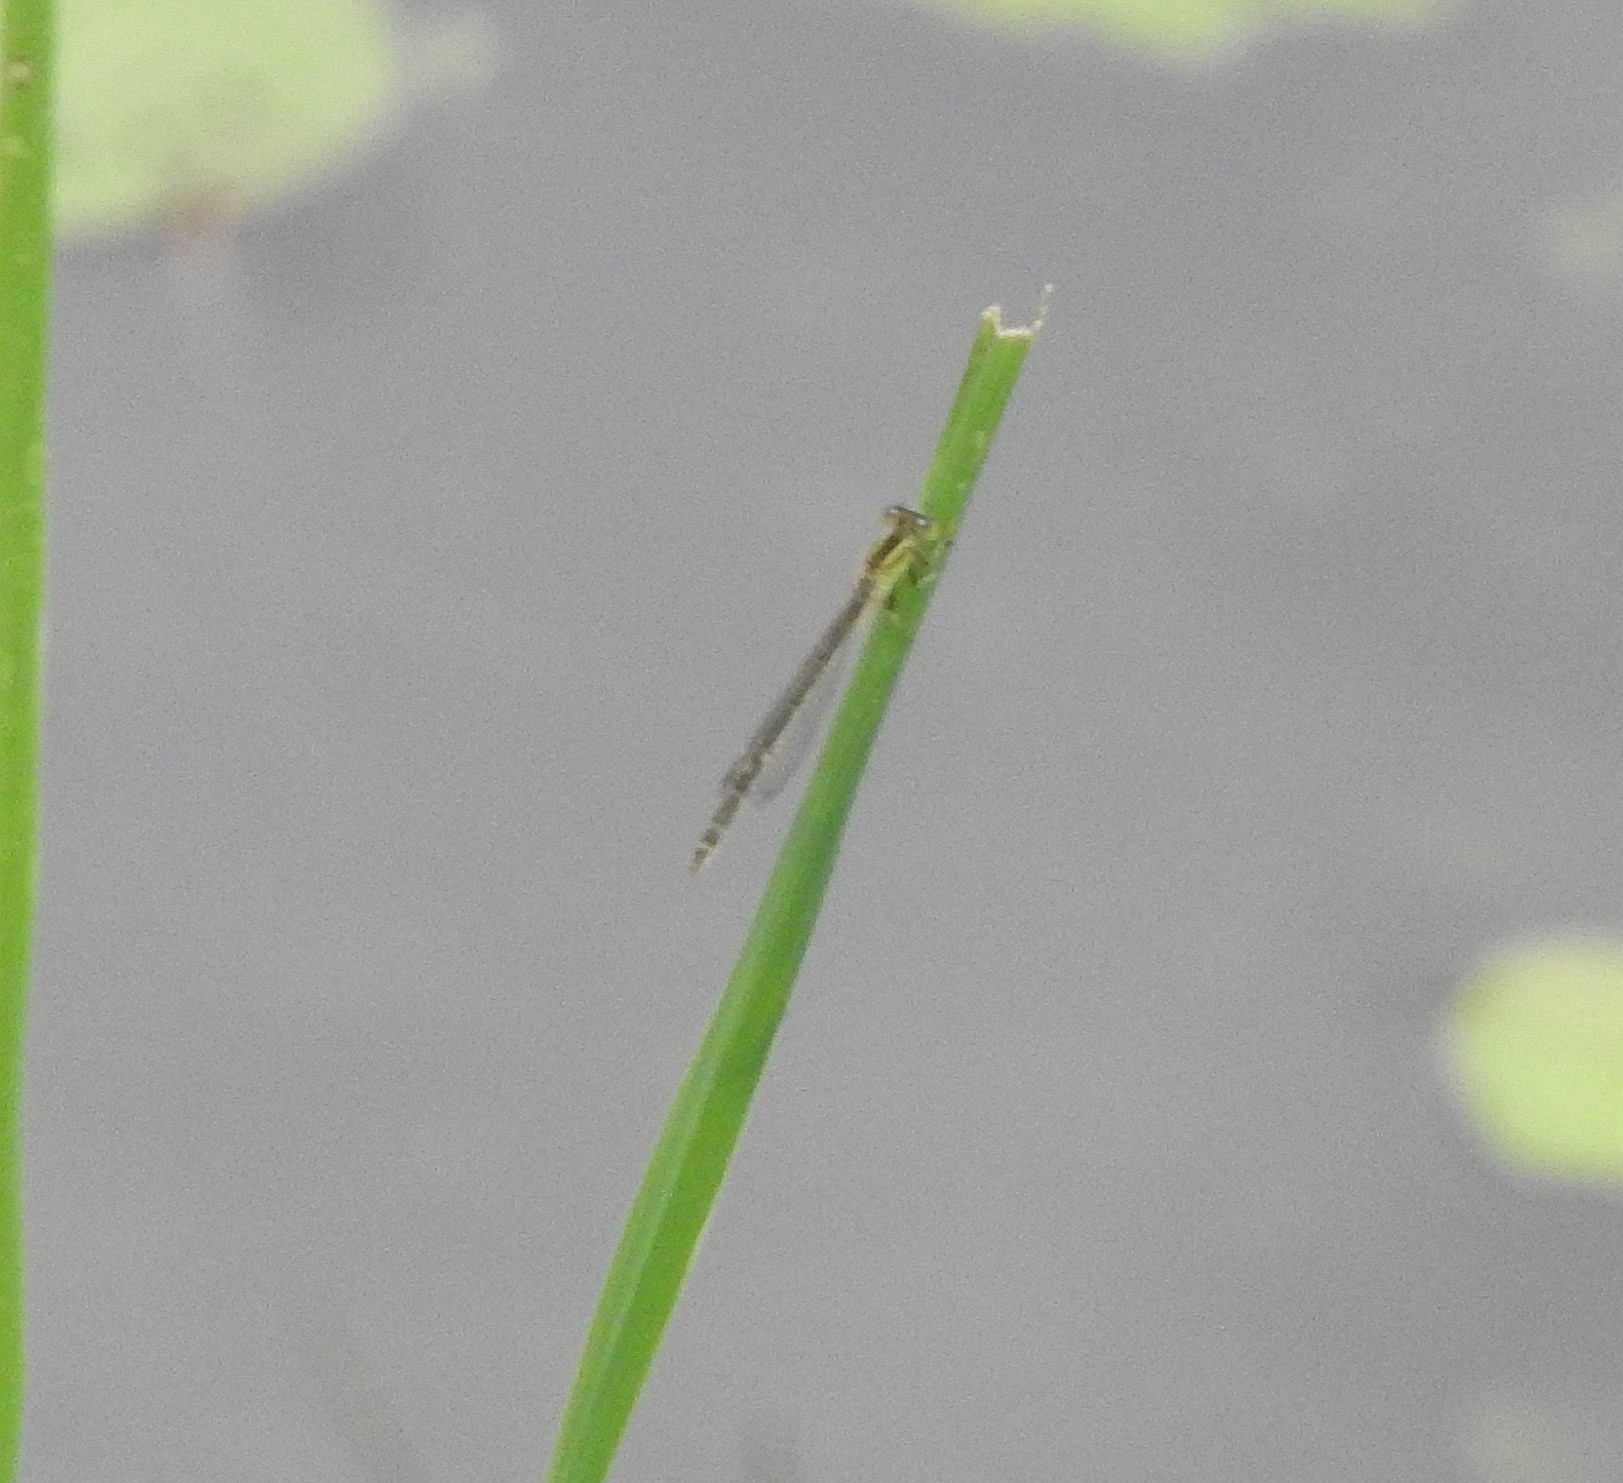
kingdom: Animalia
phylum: Arthropoda
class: Insecta
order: Odonata
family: Coenagrionidae
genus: Ischnura
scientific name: Ischnura senegalensis
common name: Tropical bluetail
